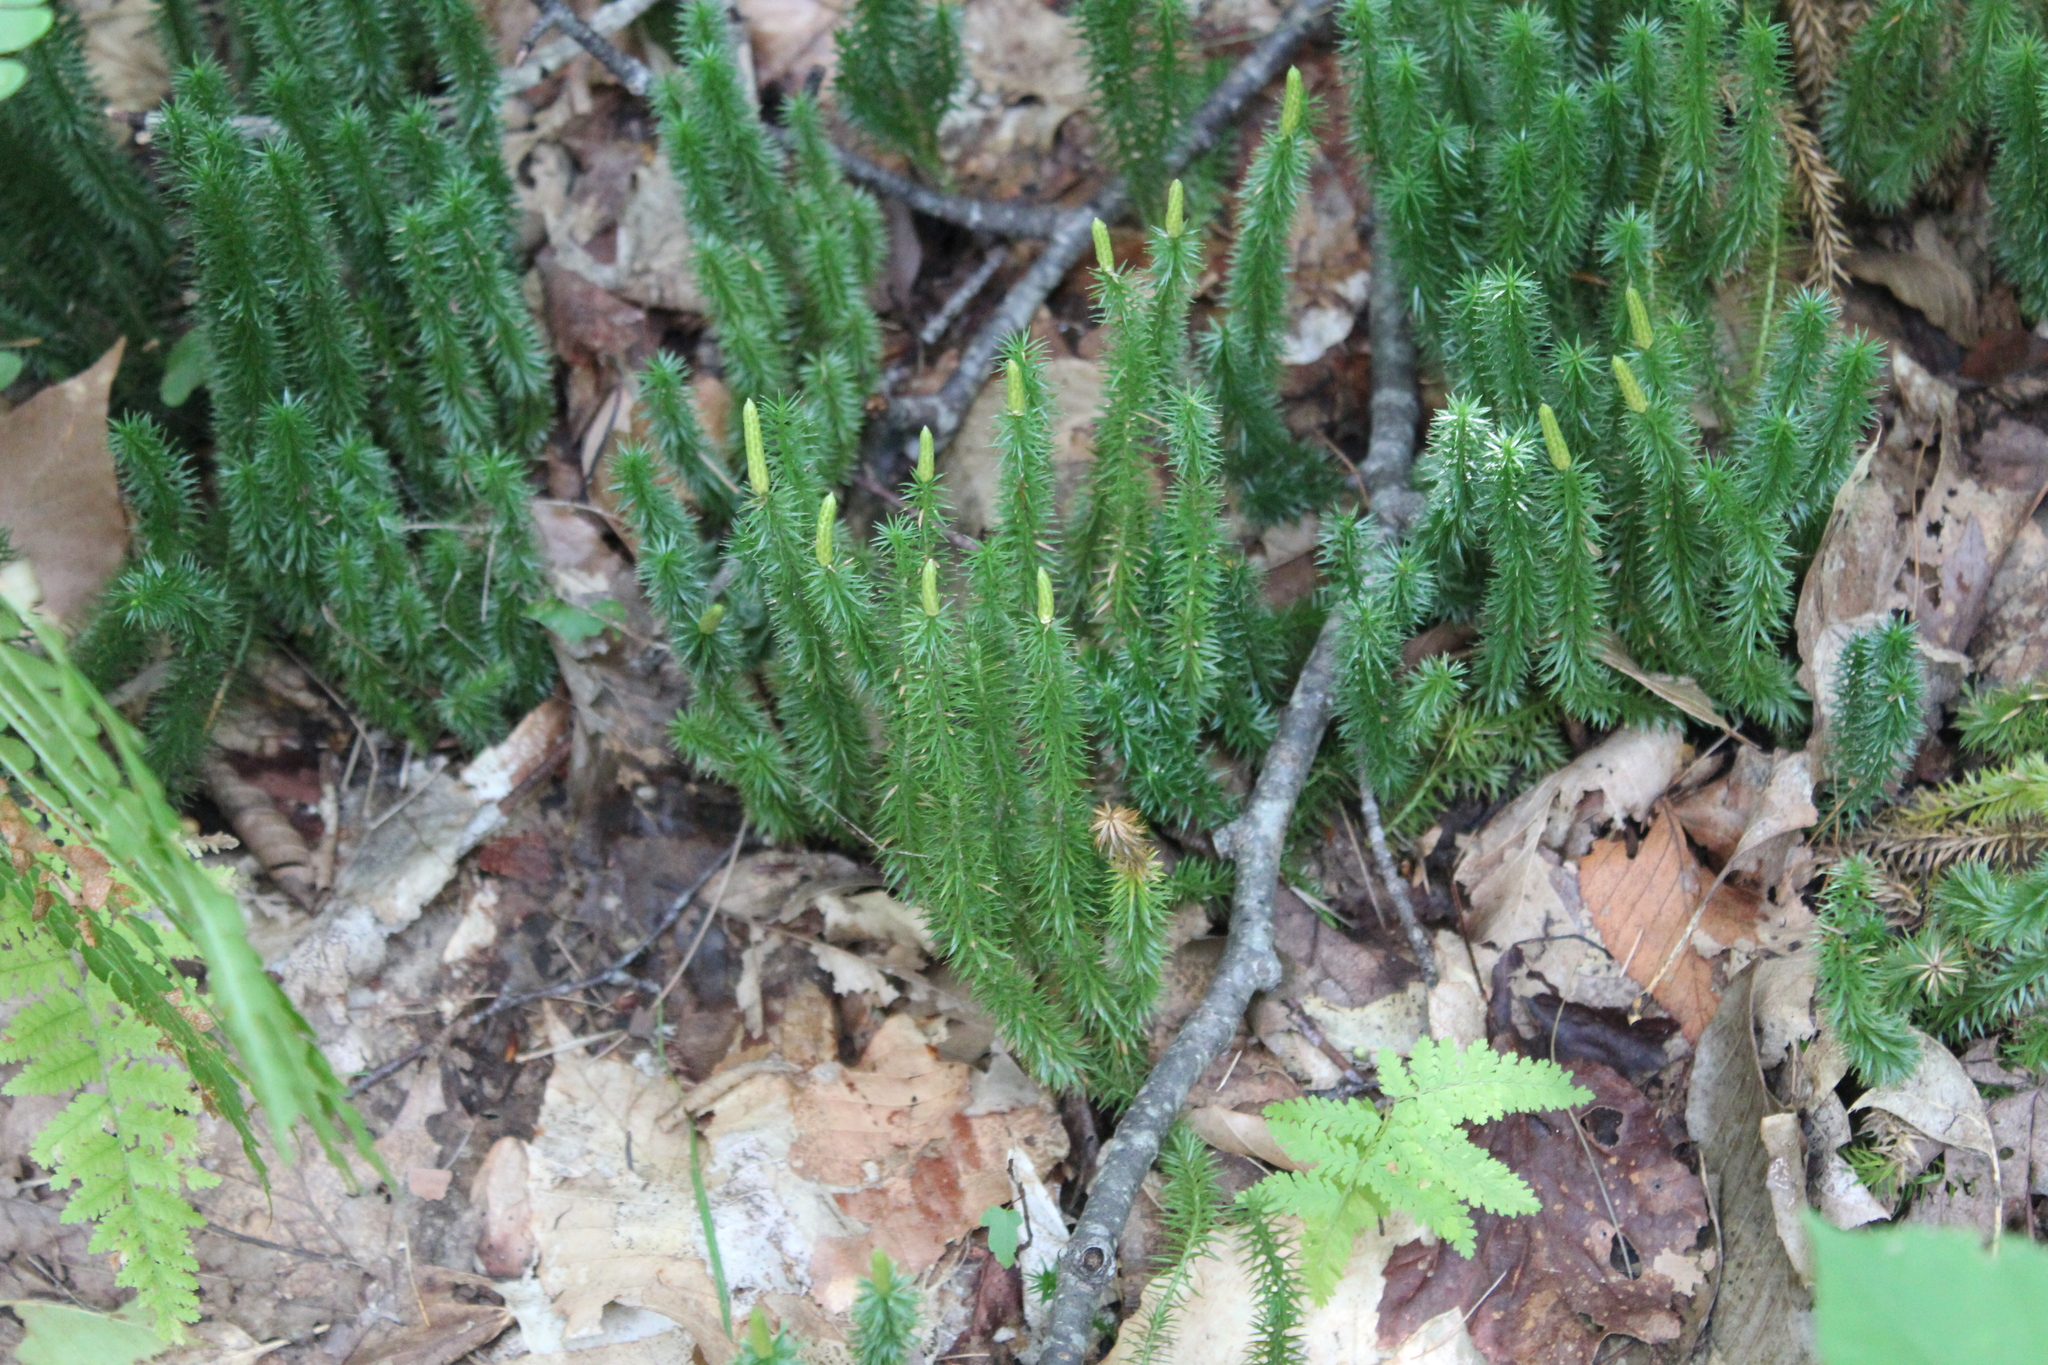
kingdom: Plantae
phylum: Tracheophyta
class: Lycopodiopsida
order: Lycopodiales
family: Lycopodiaceae
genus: Spinulum
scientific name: Spinulum annotinum
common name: Interrupted club-moss
